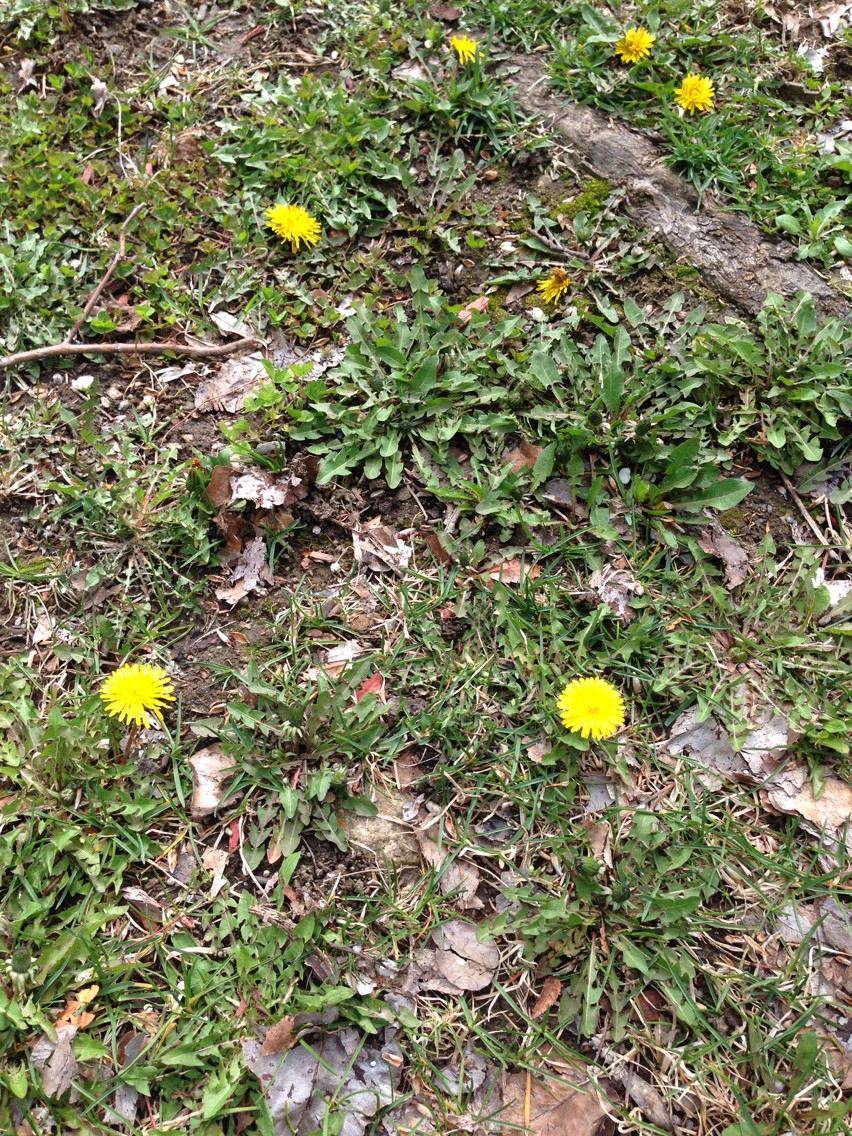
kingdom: Plantae
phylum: Tracheophyta
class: Magnoliopsida
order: Asterales
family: Asteraceae
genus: Taraxacum
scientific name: Taraxacum officinale
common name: Common dandelion
